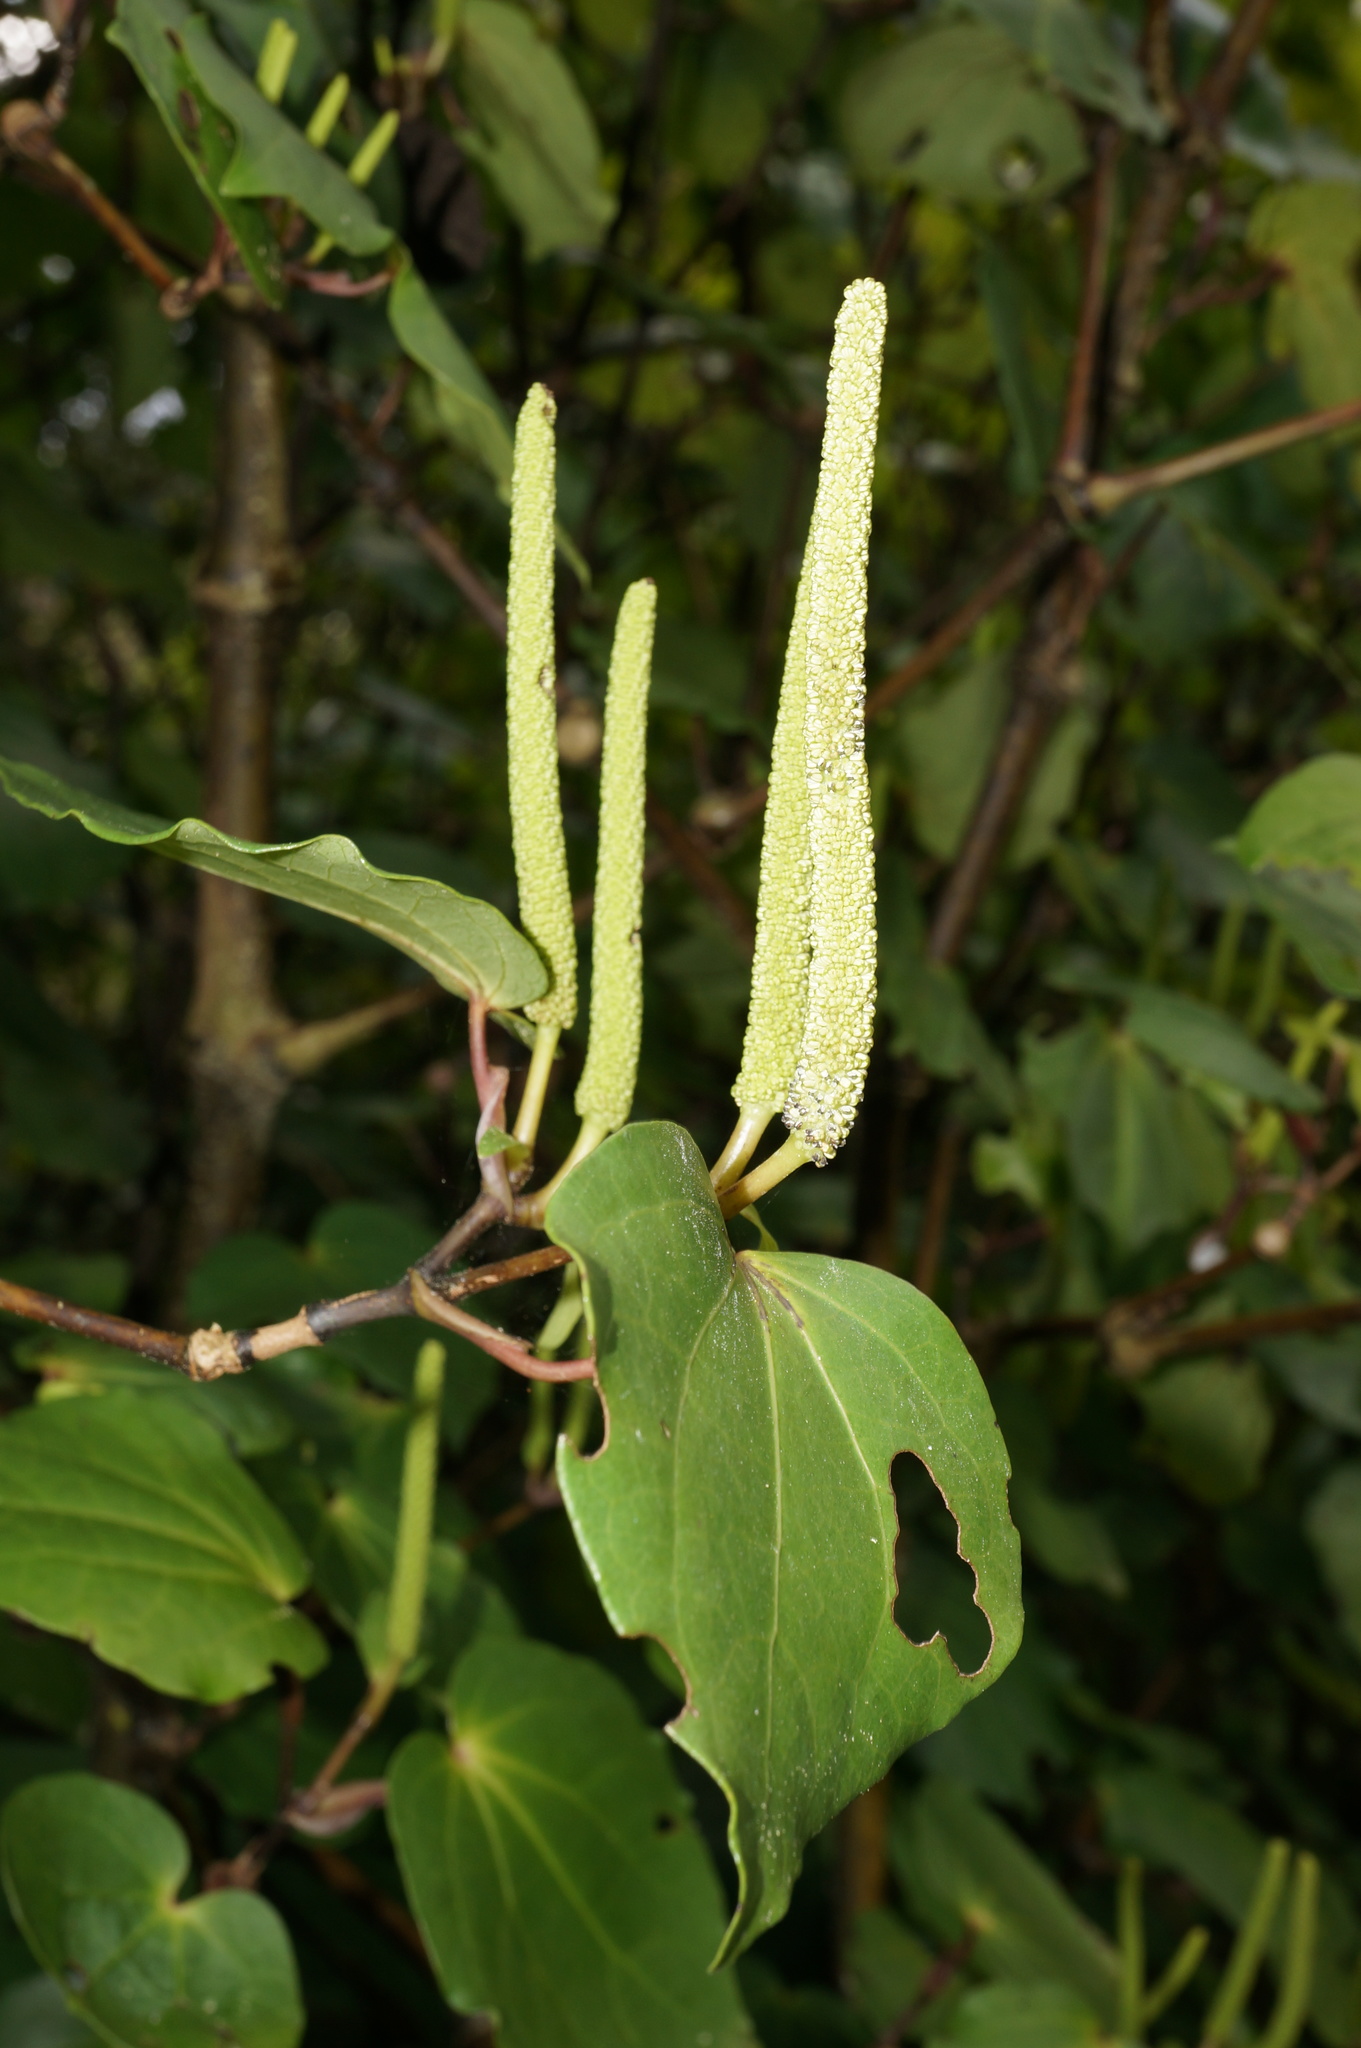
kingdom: Plantae
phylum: Tracheophyta
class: Magnoliopsida
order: Piperales
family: Piperaceae
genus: Macropiper
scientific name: Macropiper excelsum
